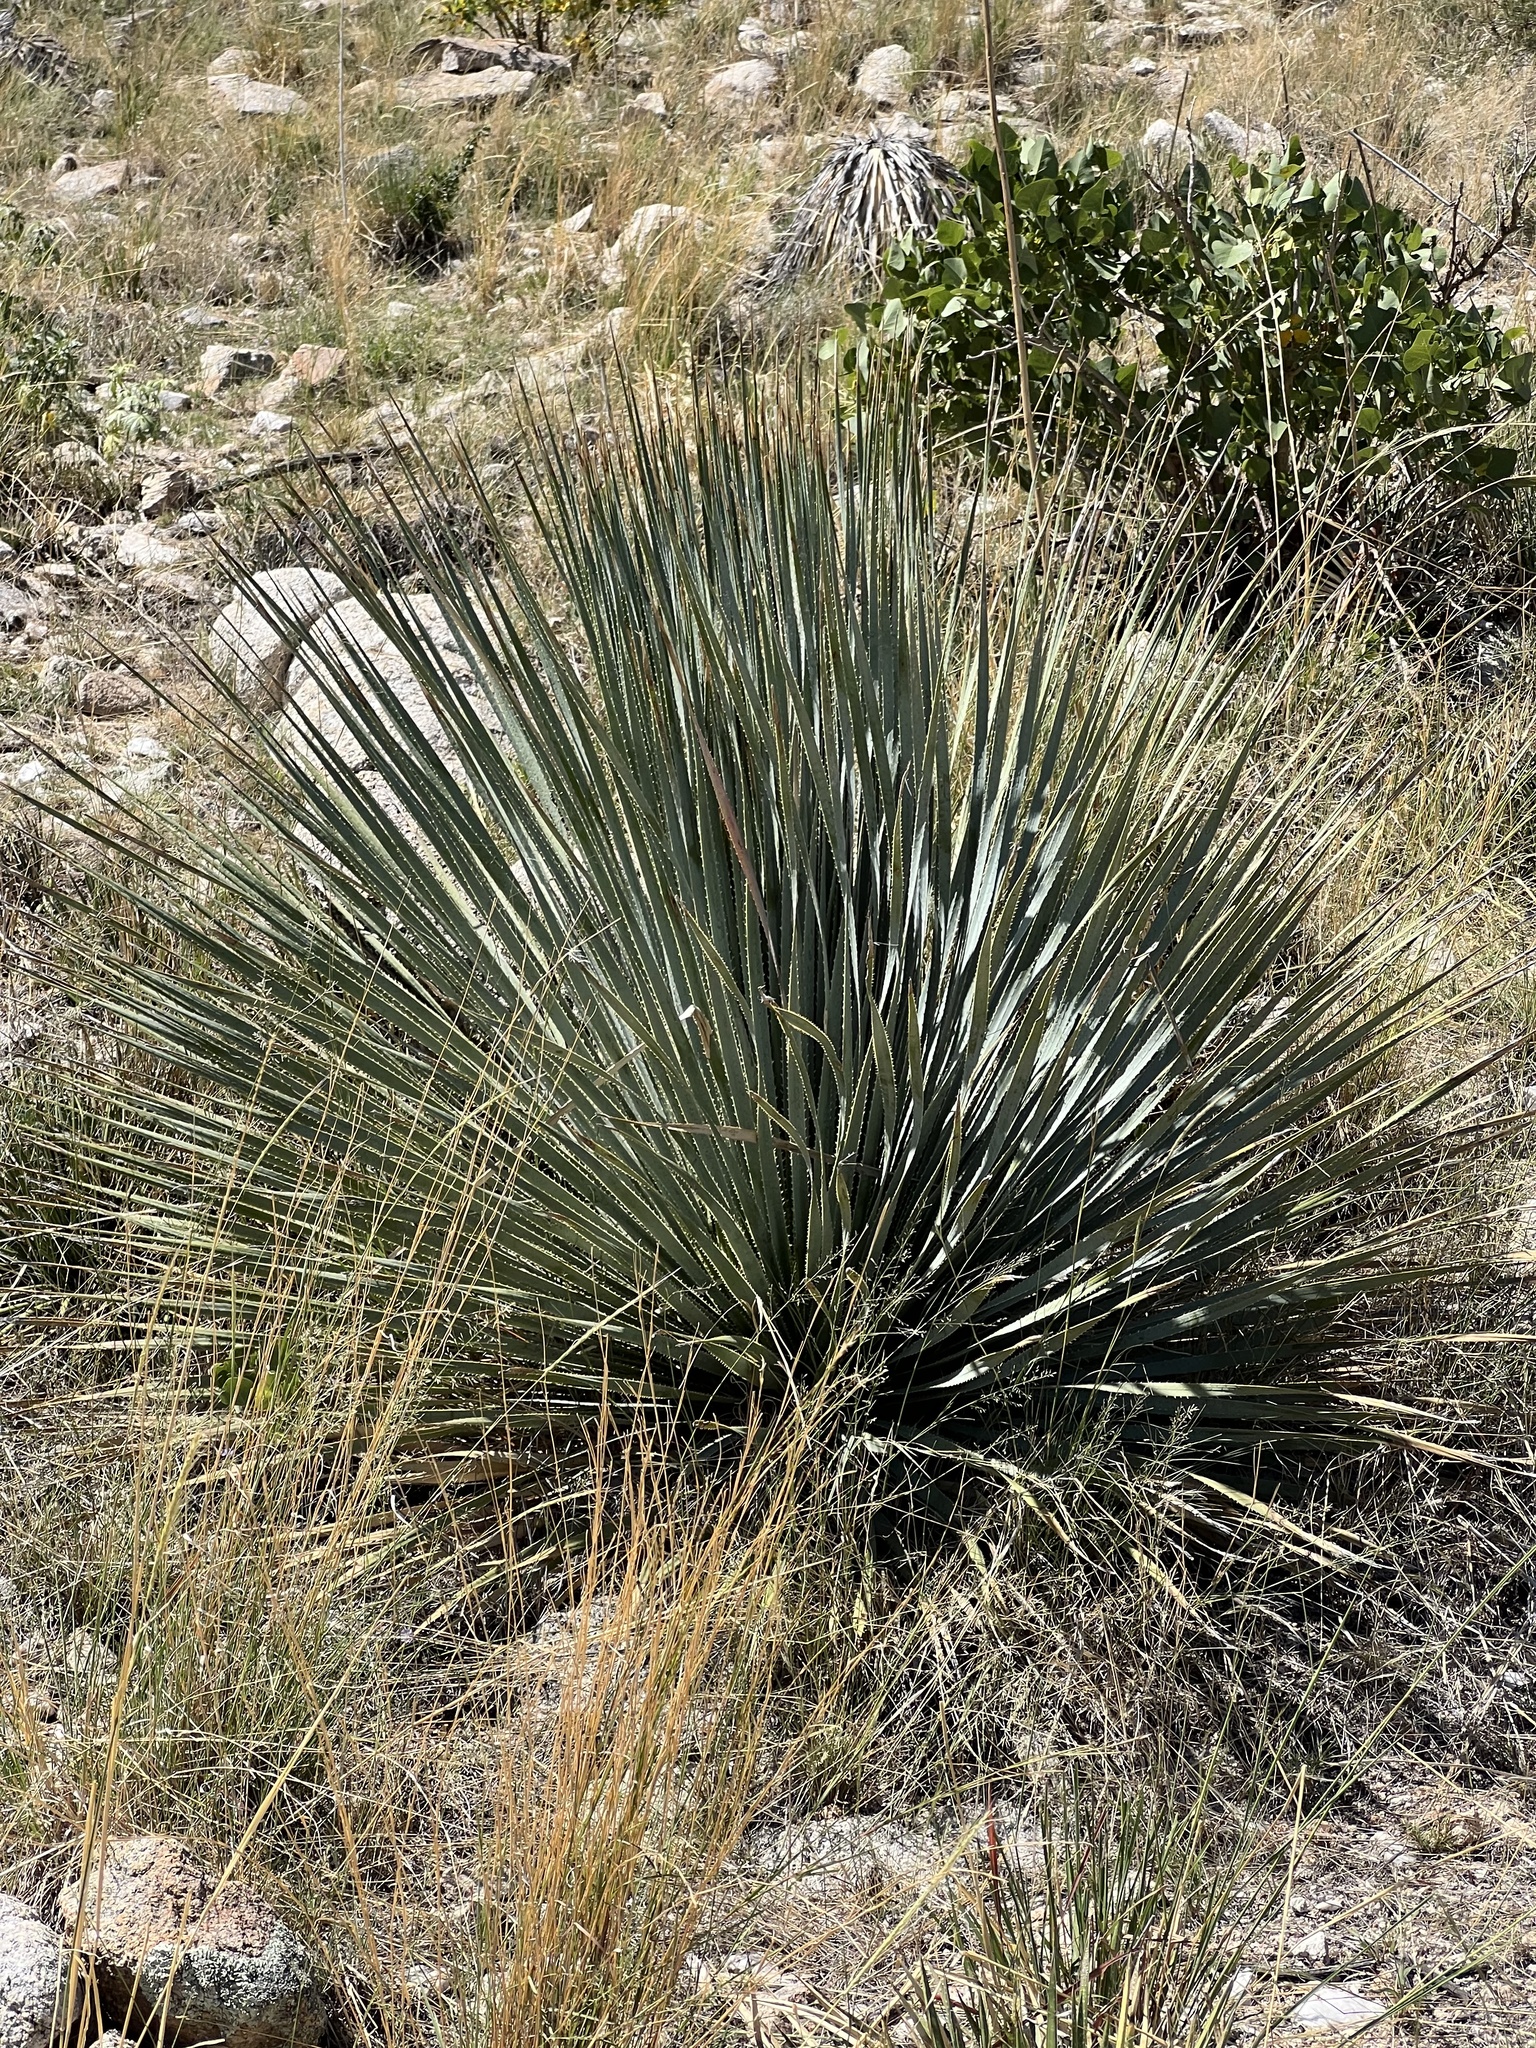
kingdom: Plantae
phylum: Tracheophyta
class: Liliopsida
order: Asparagales
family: Asparagaceae
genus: Dasylirion
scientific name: Dasylirion wheeleri
